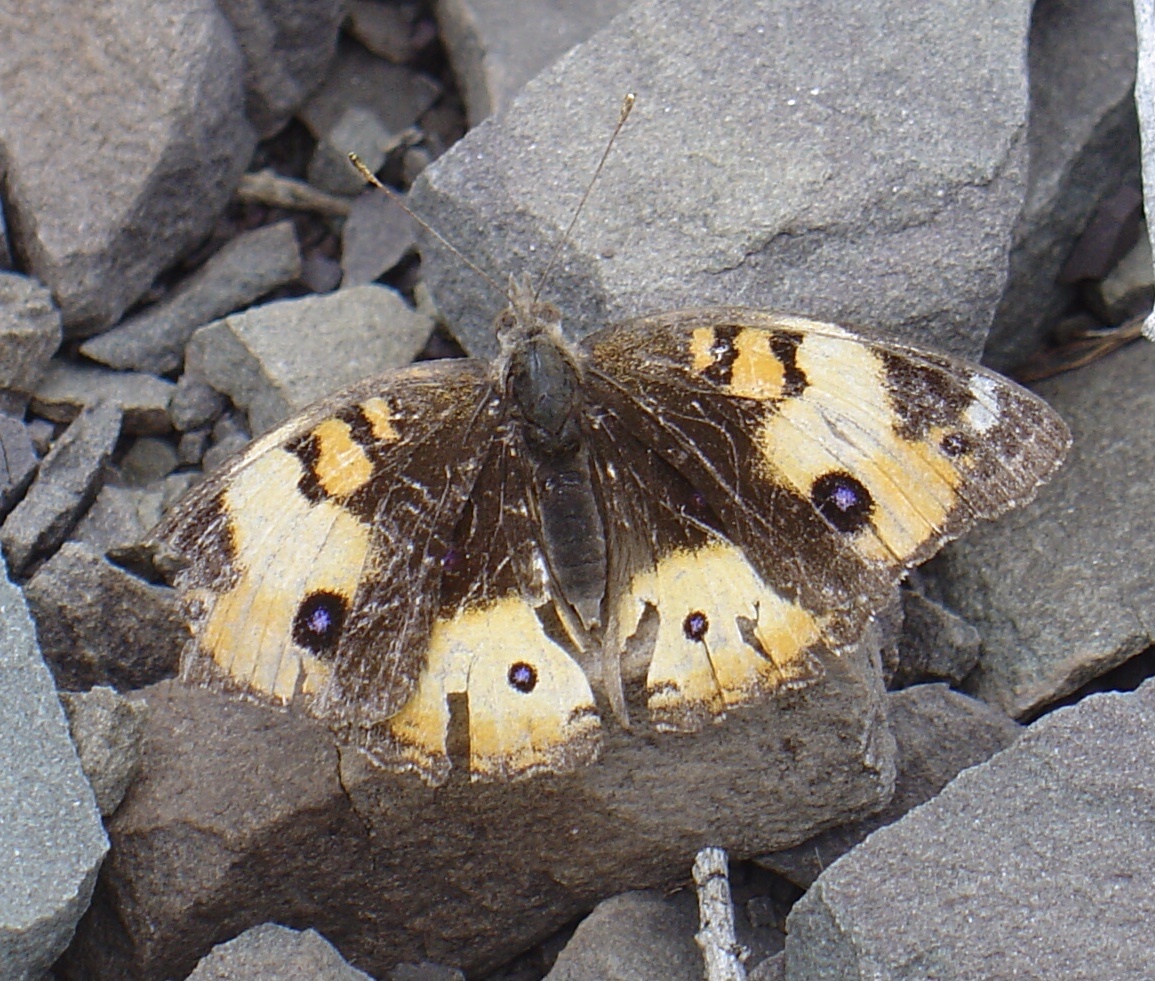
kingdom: Animalia
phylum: Arthropoda
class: Insecta
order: Lepidoptera
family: Nymphalidae
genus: Junonia
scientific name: Junonia hierta
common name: Yellow pansy
